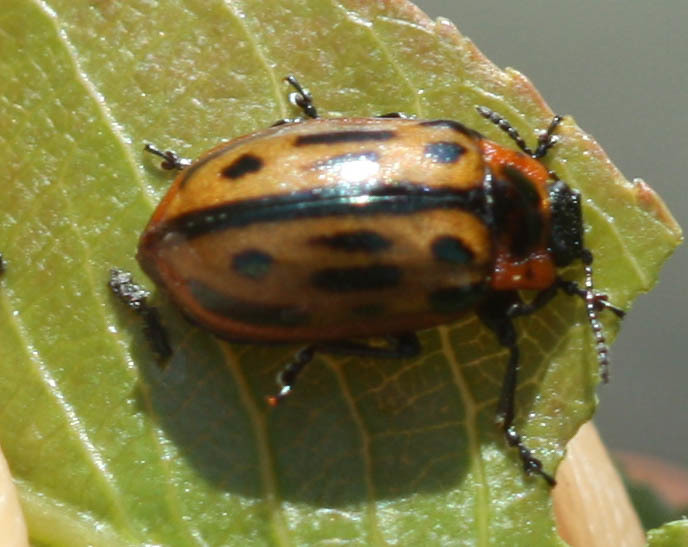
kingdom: Animalia
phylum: Arthropoda
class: Insecta
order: Coleoptera
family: Chrysomelidae
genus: Chrysomela
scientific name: Chrysomela confluens
